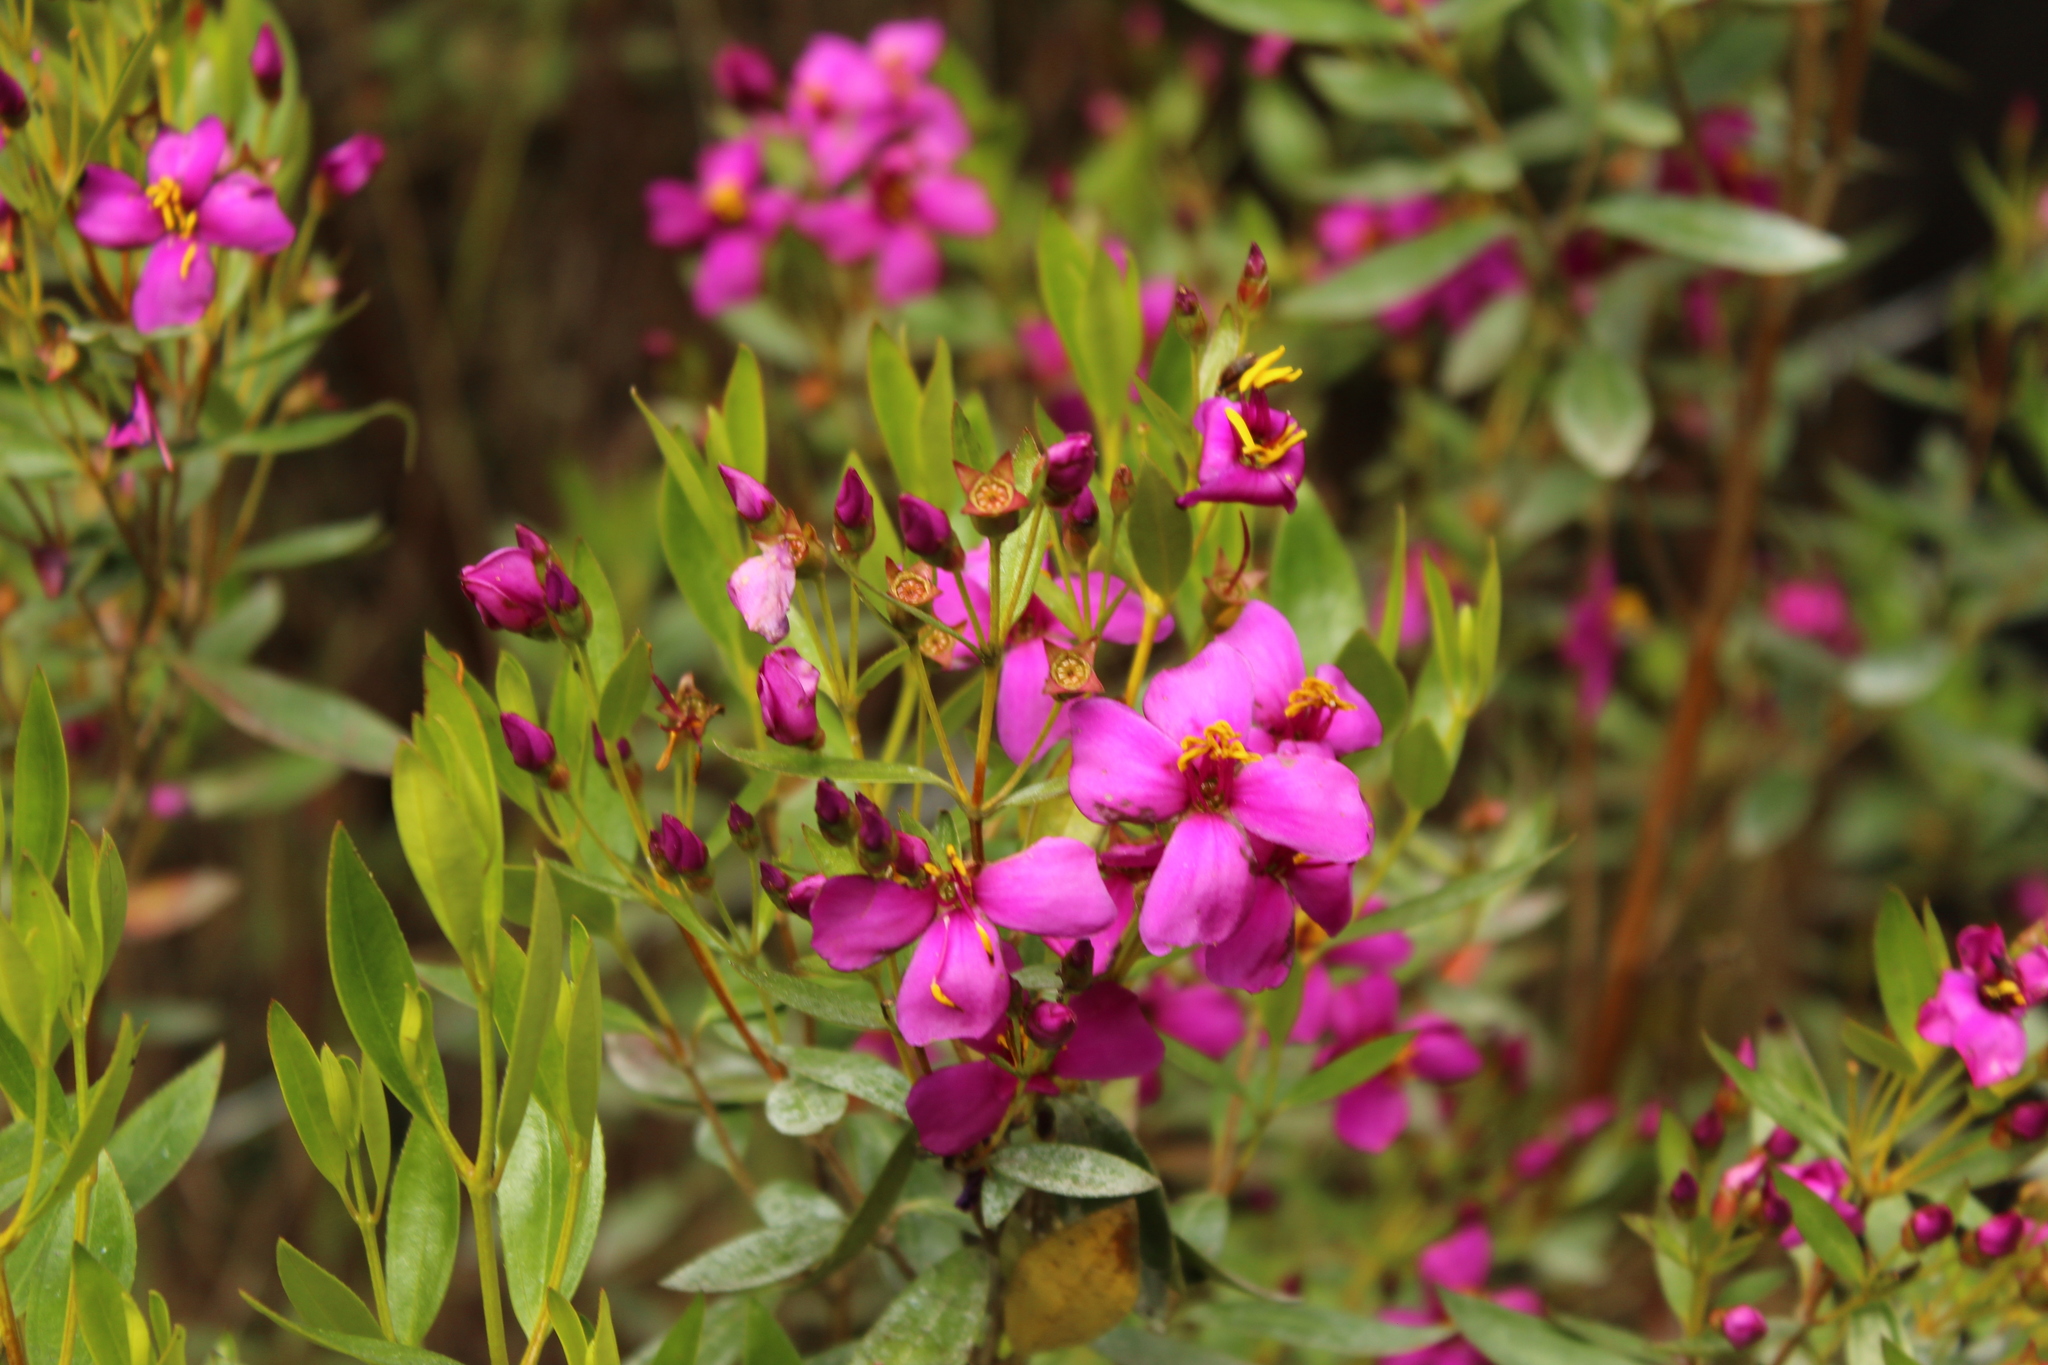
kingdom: Plantae
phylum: Tracheophyta
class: Magnoliopsida
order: Myrtales
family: Melastomataceae
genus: Bucquetia
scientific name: Bucquetia glutinosa
